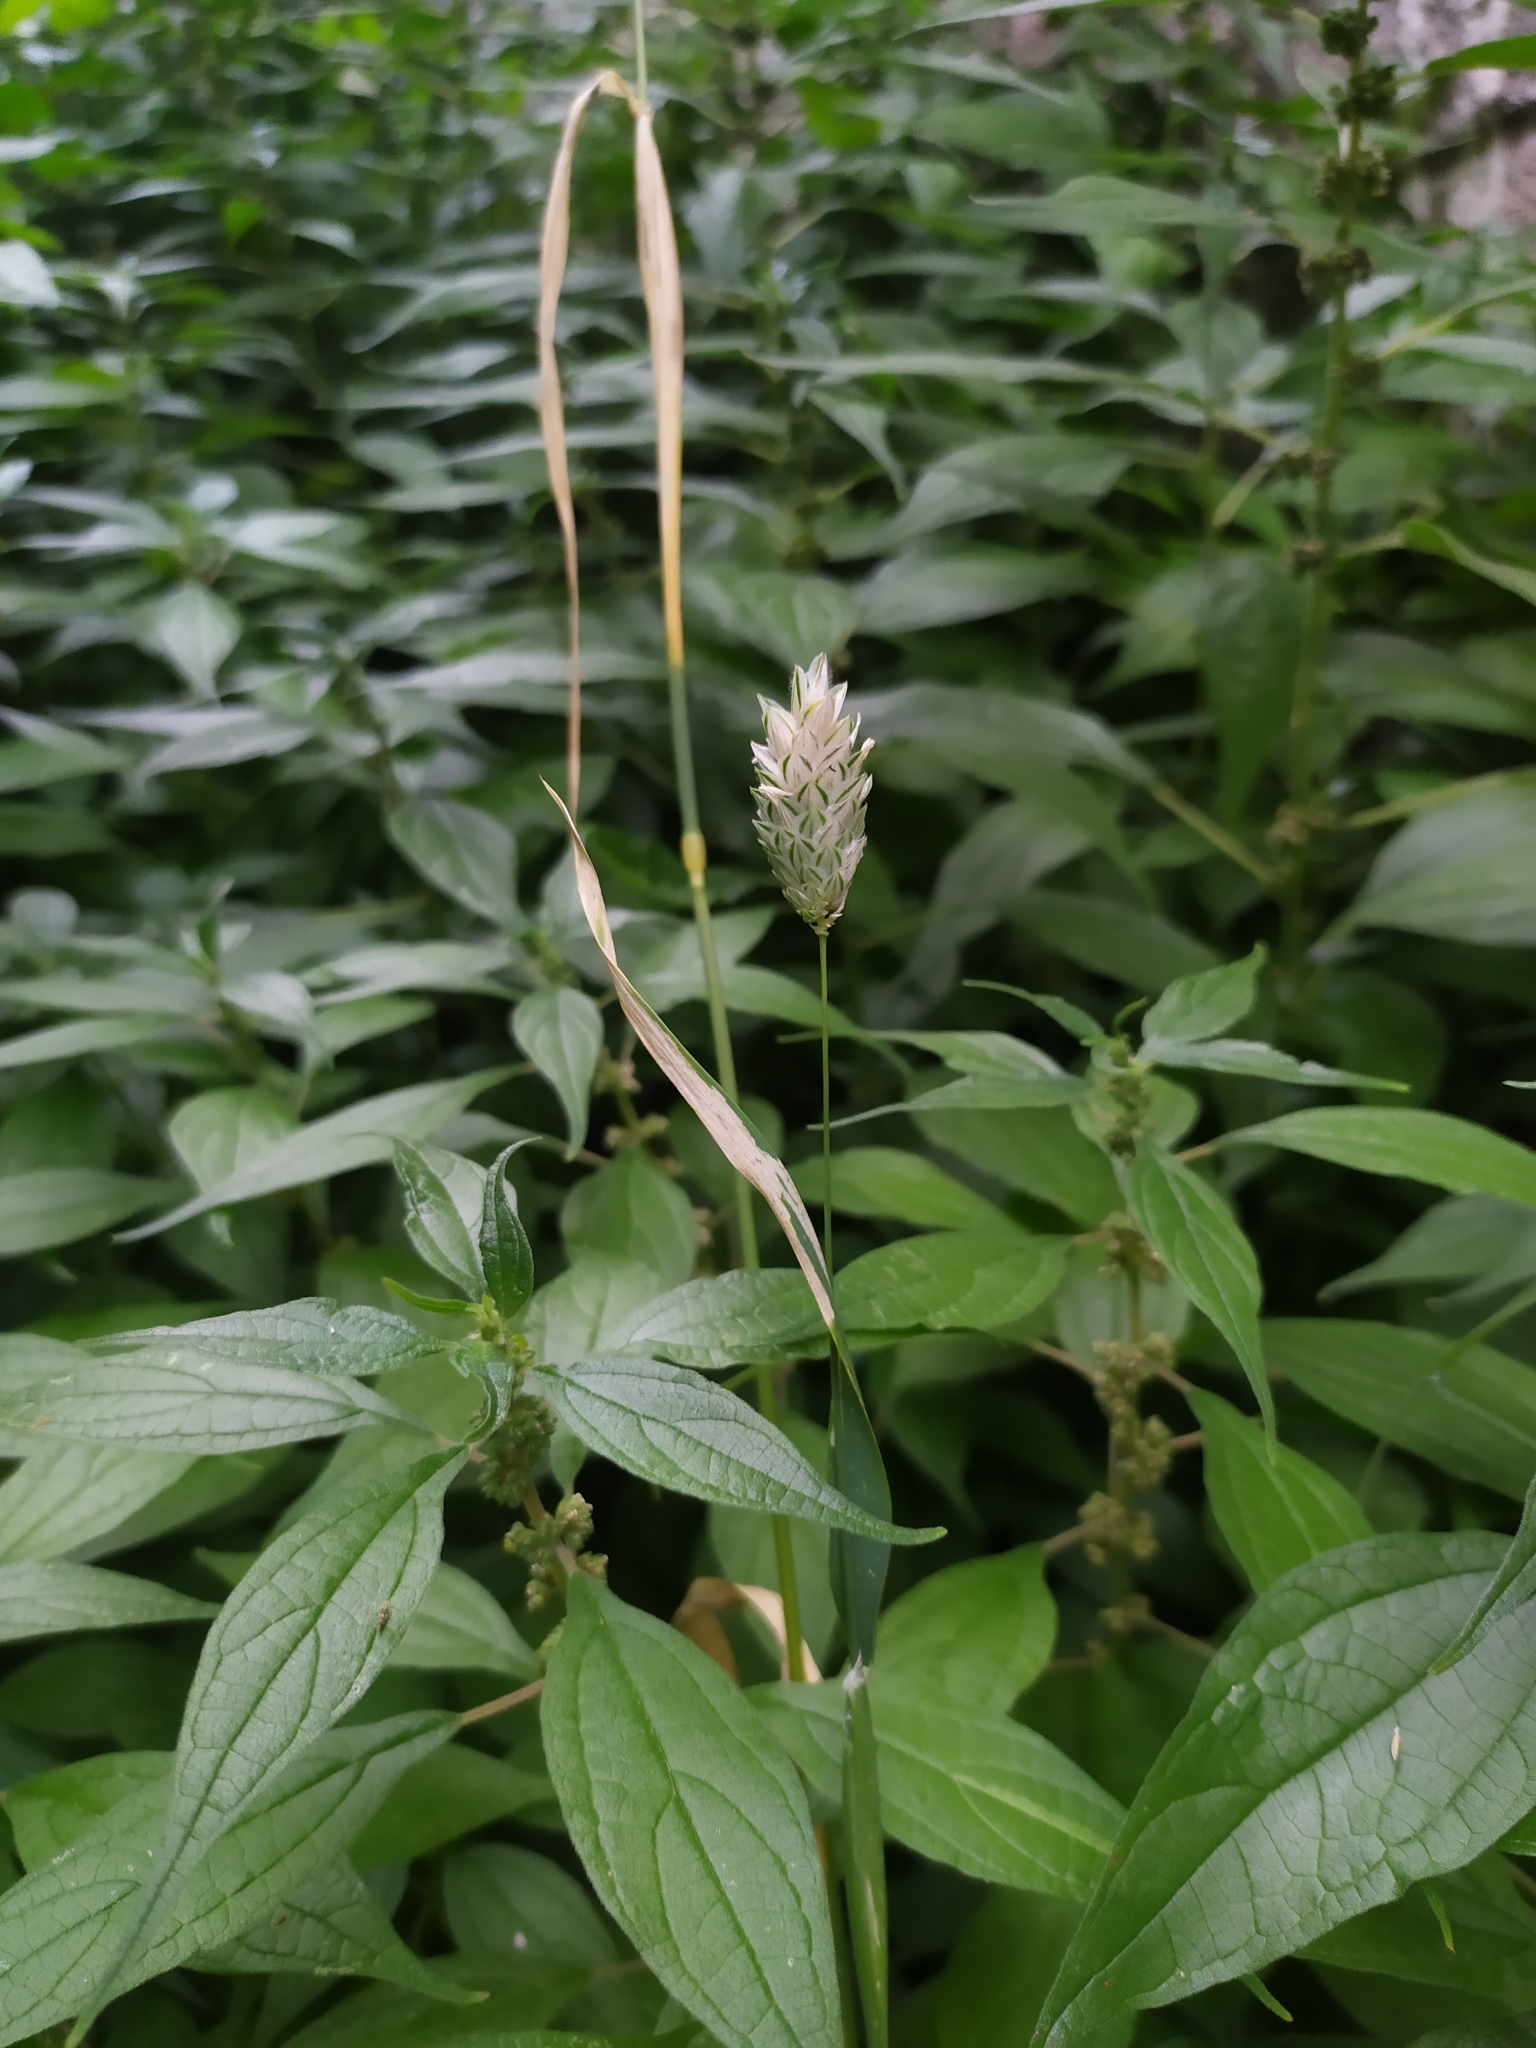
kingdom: Plantae
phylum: Tracheophyta
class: Liliopsida
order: Poales
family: Poaceae
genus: Phalaris
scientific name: Phalaris canariensis
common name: Annual canarygrass
